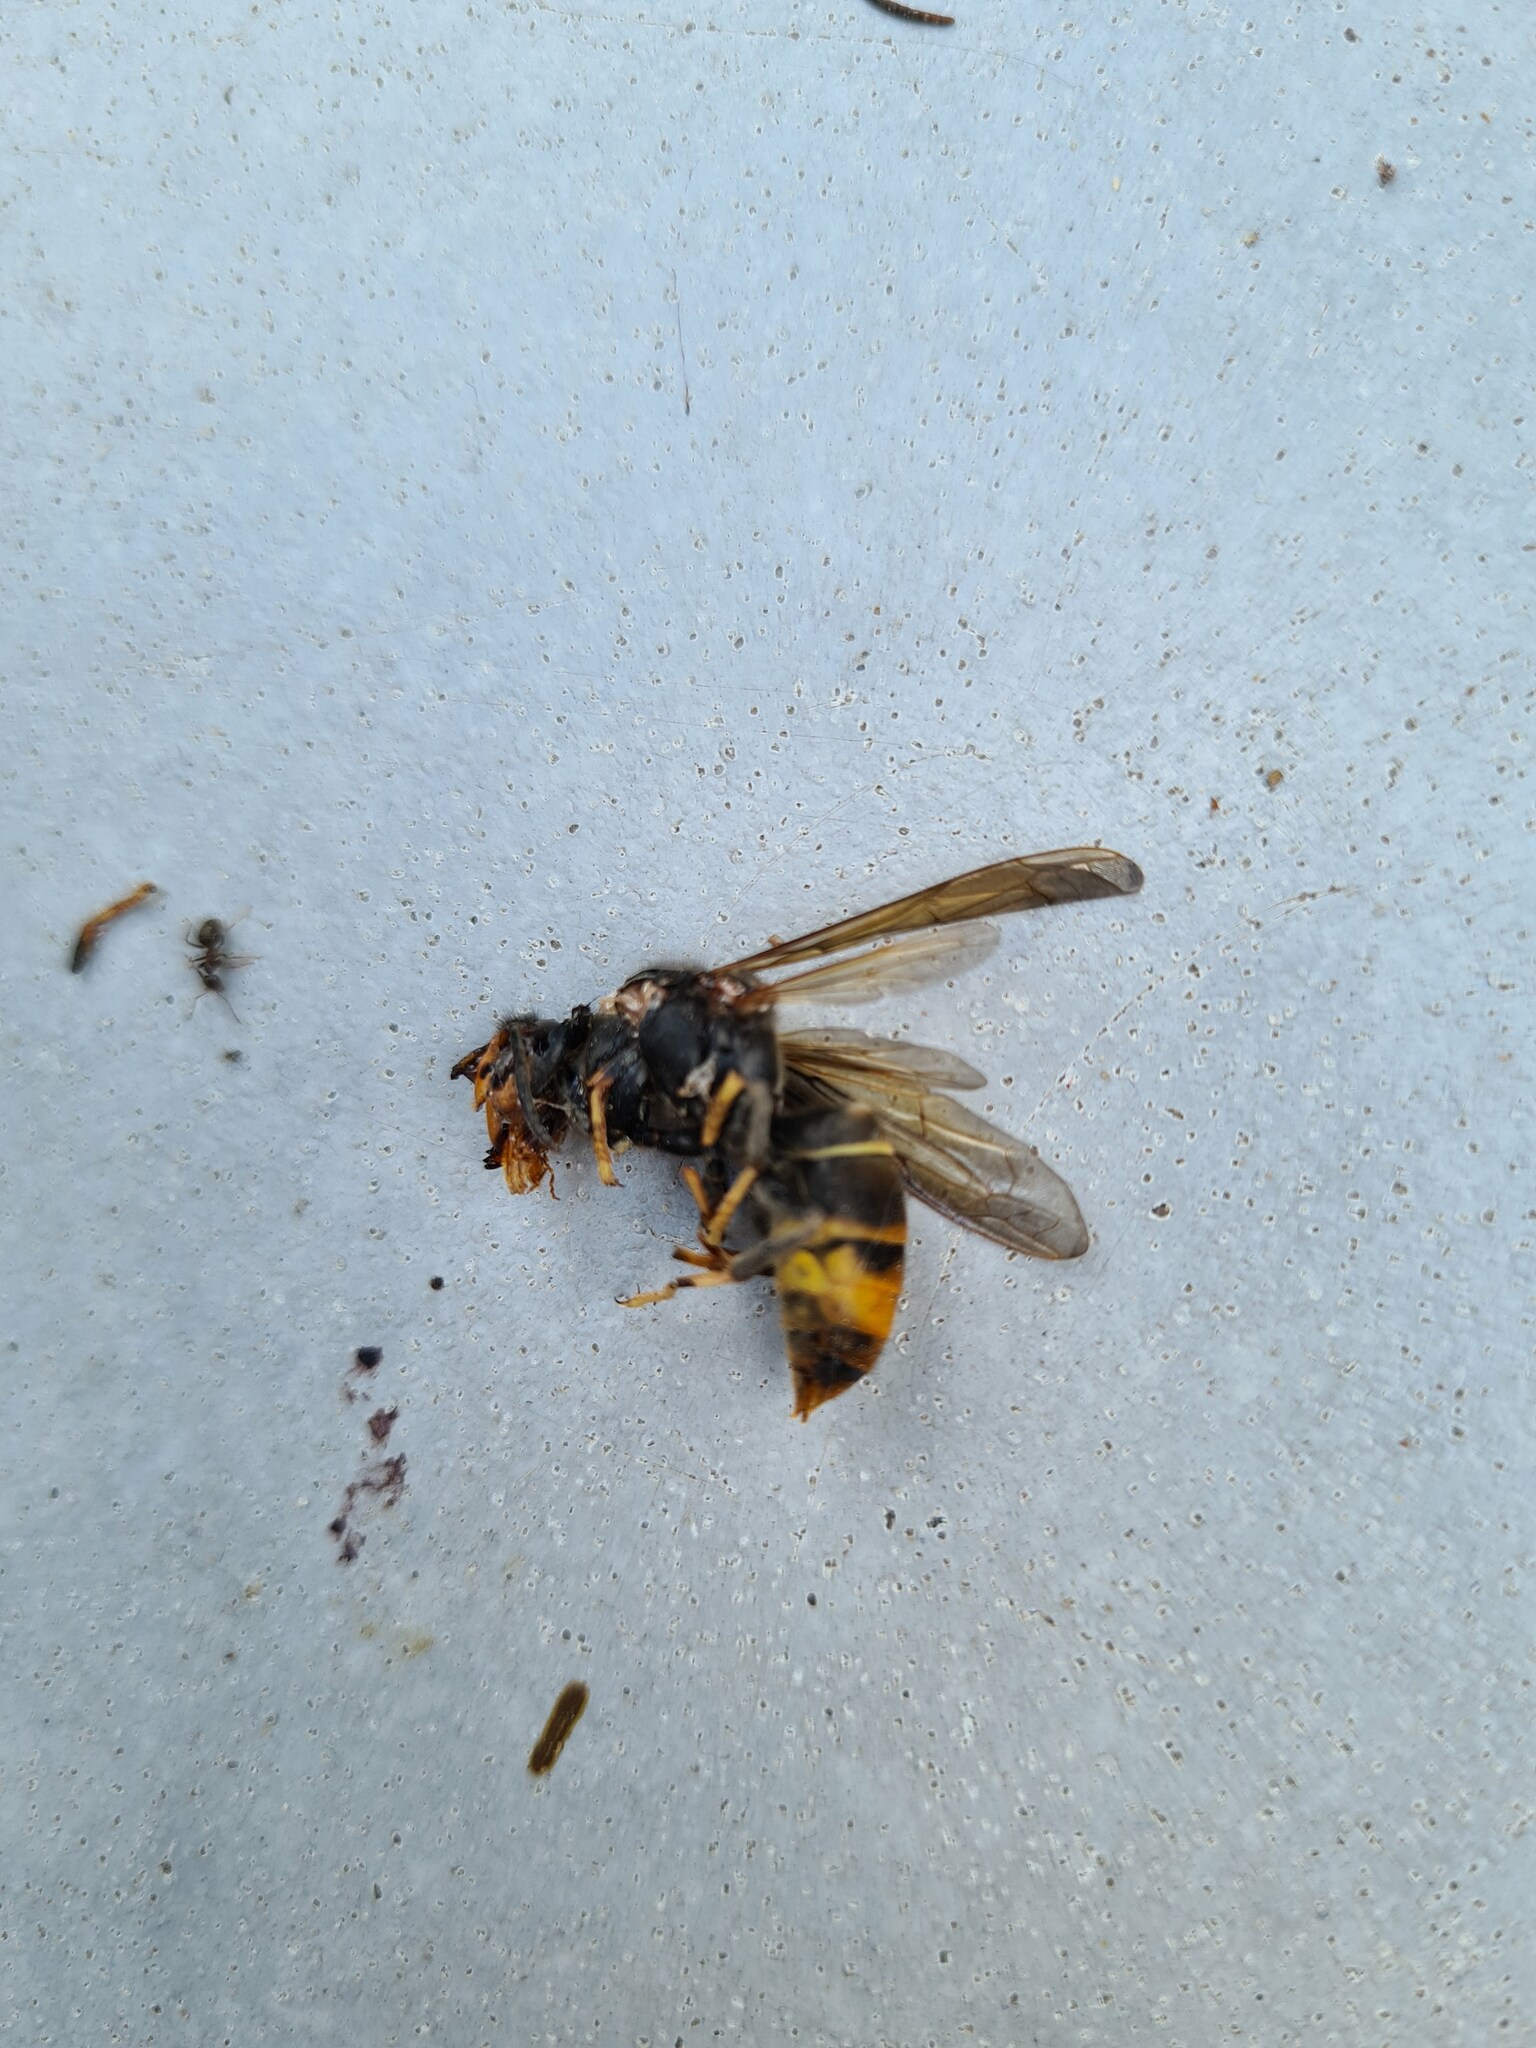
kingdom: Animalia
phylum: Arthropoda
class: Insecta
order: Hymenoptera
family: Vespidae
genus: Vespa
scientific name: Vespa velutina
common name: Asian hornet
